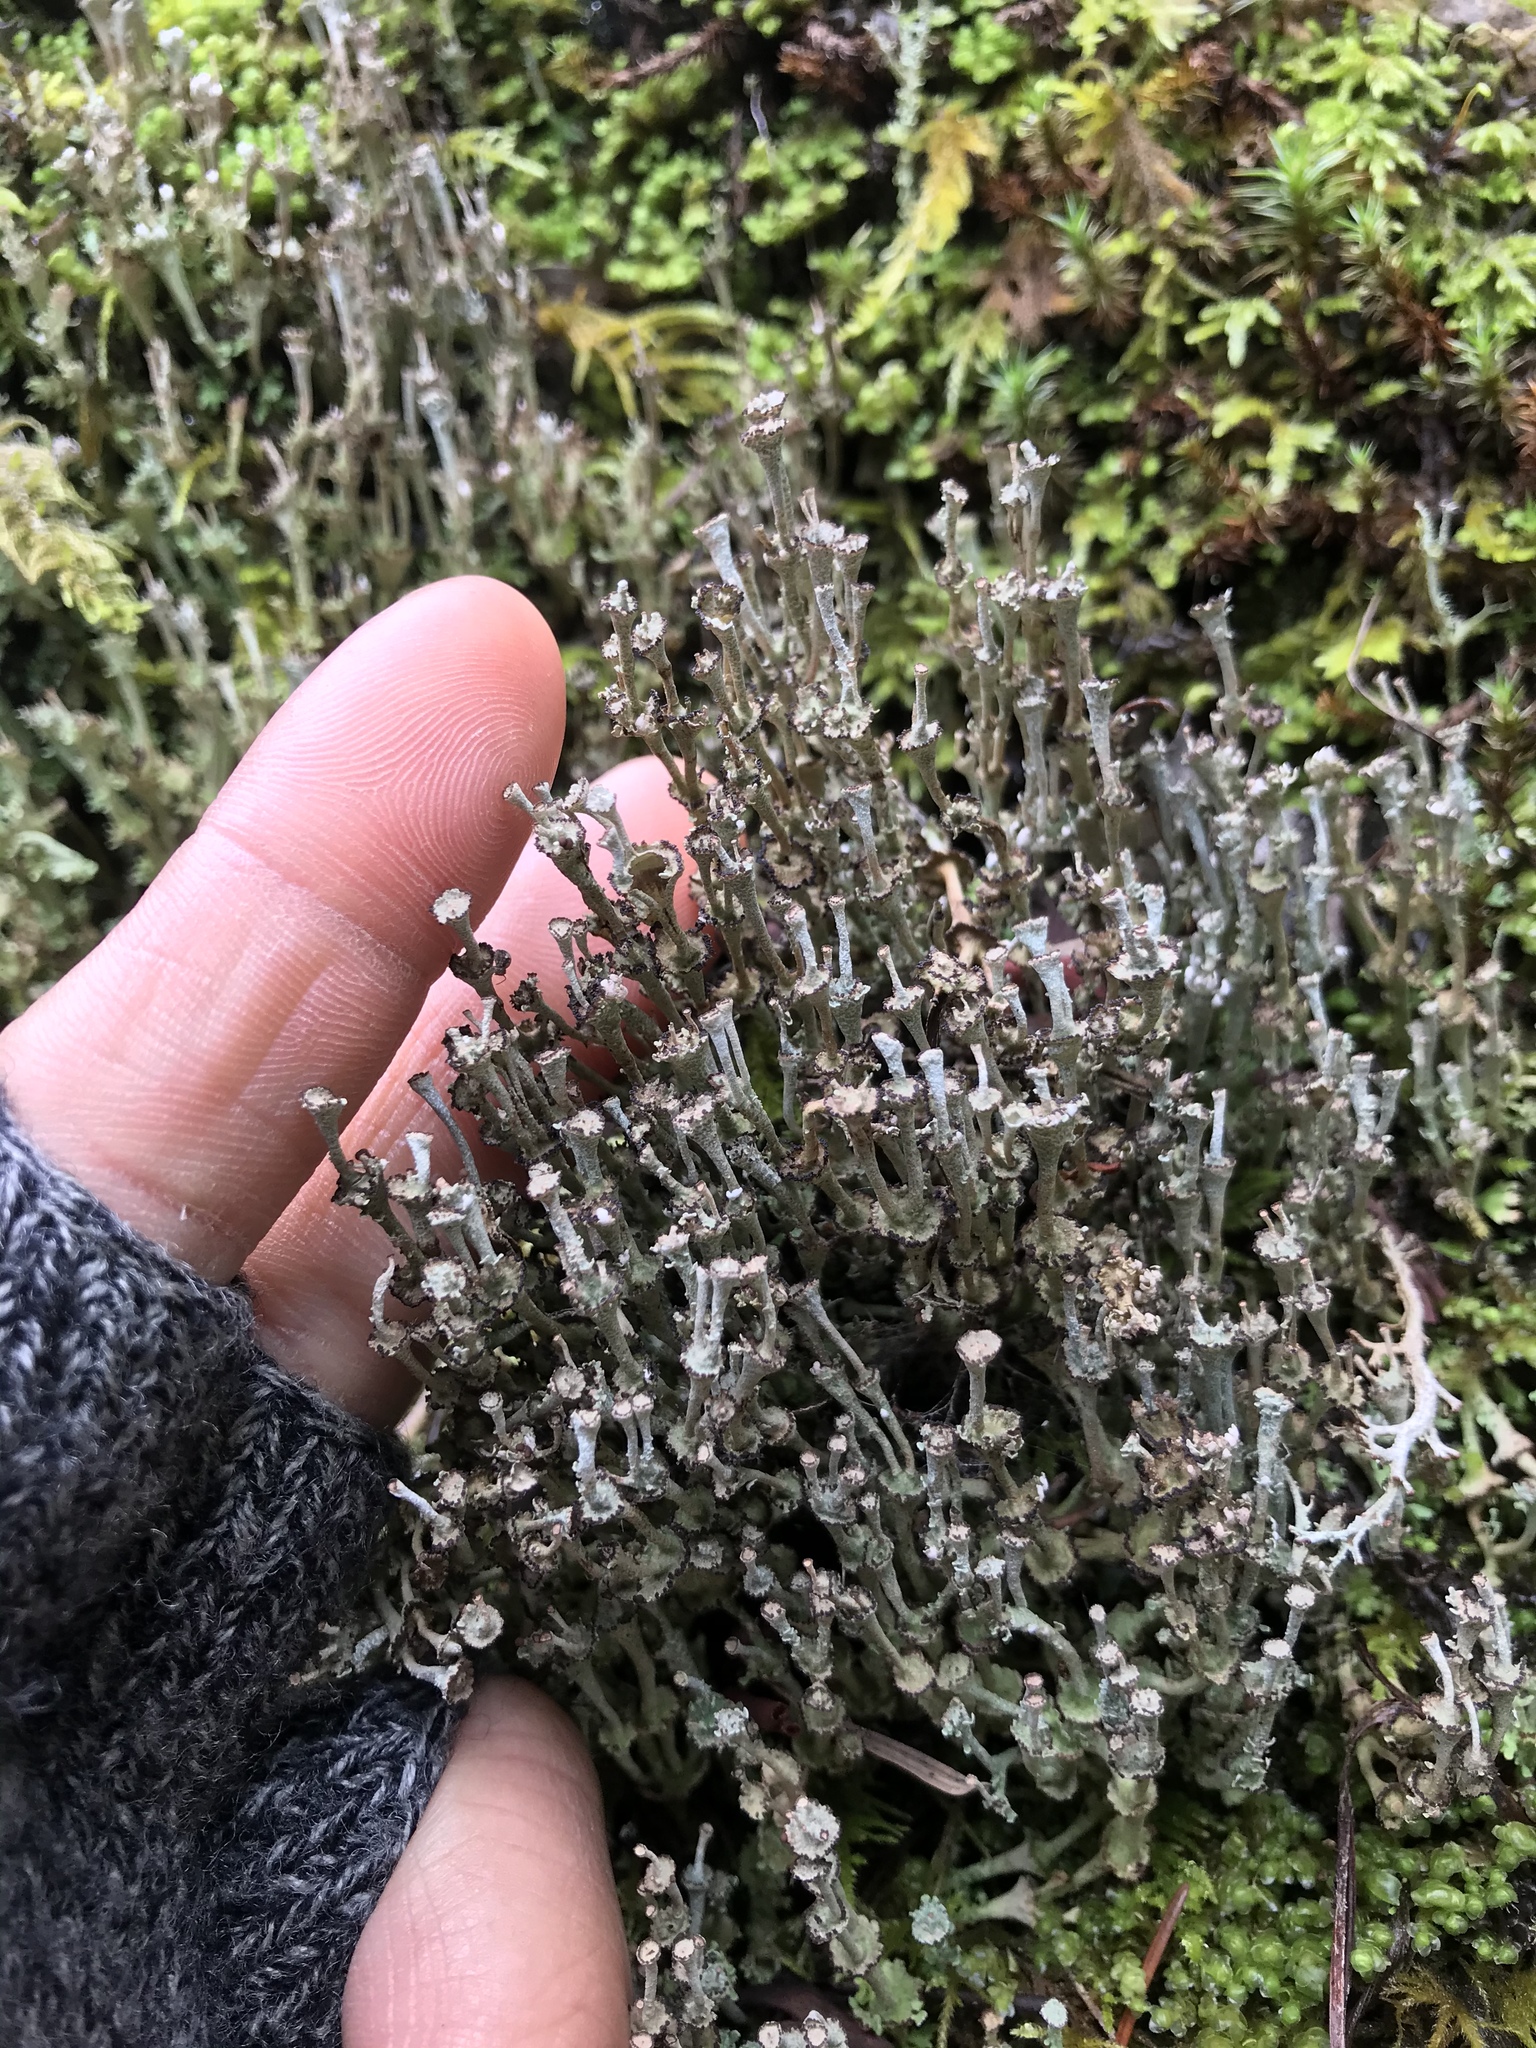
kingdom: Fungi
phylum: Ascomycota
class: Lecanoromycetes
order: Lecanorales
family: Cladoniaceae
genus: Cladonia
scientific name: Cladonia concinna
